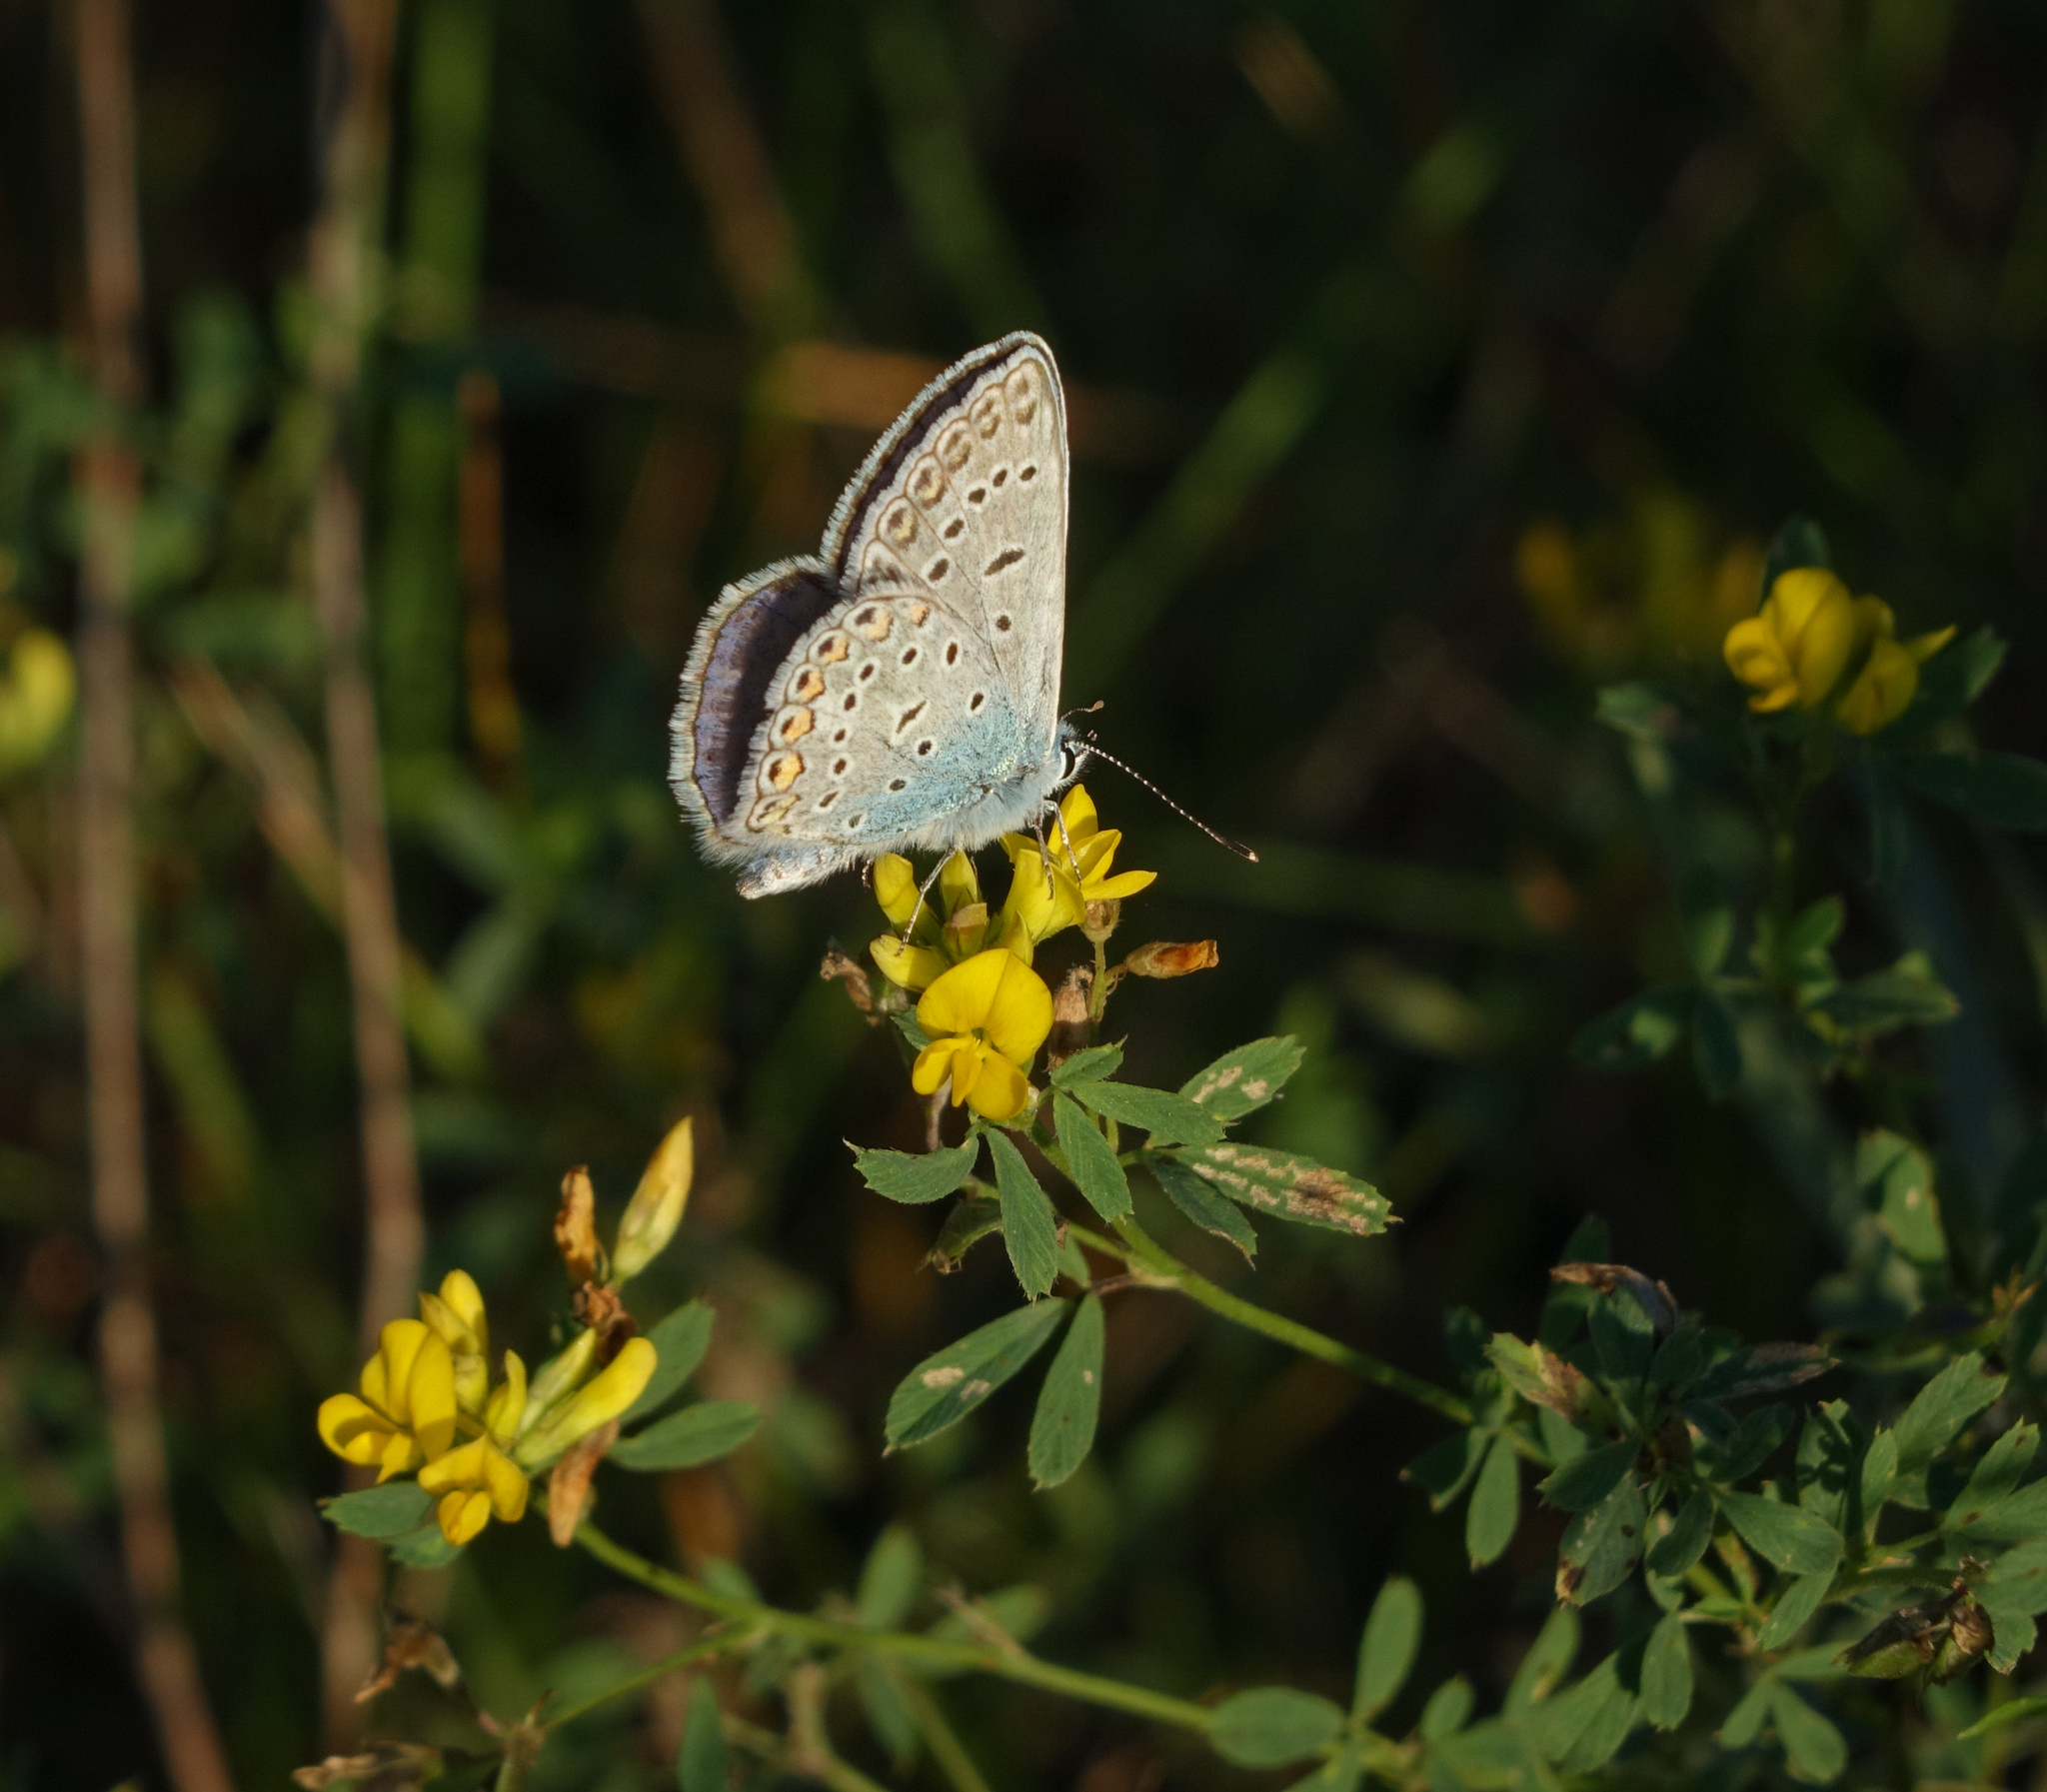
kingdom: Animalia
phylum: Arthropoda
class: Insecta
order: Lepidoptera
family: Lycaenidae
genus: Polyommatus
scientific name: Polyommatus icarus
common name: Common blue
